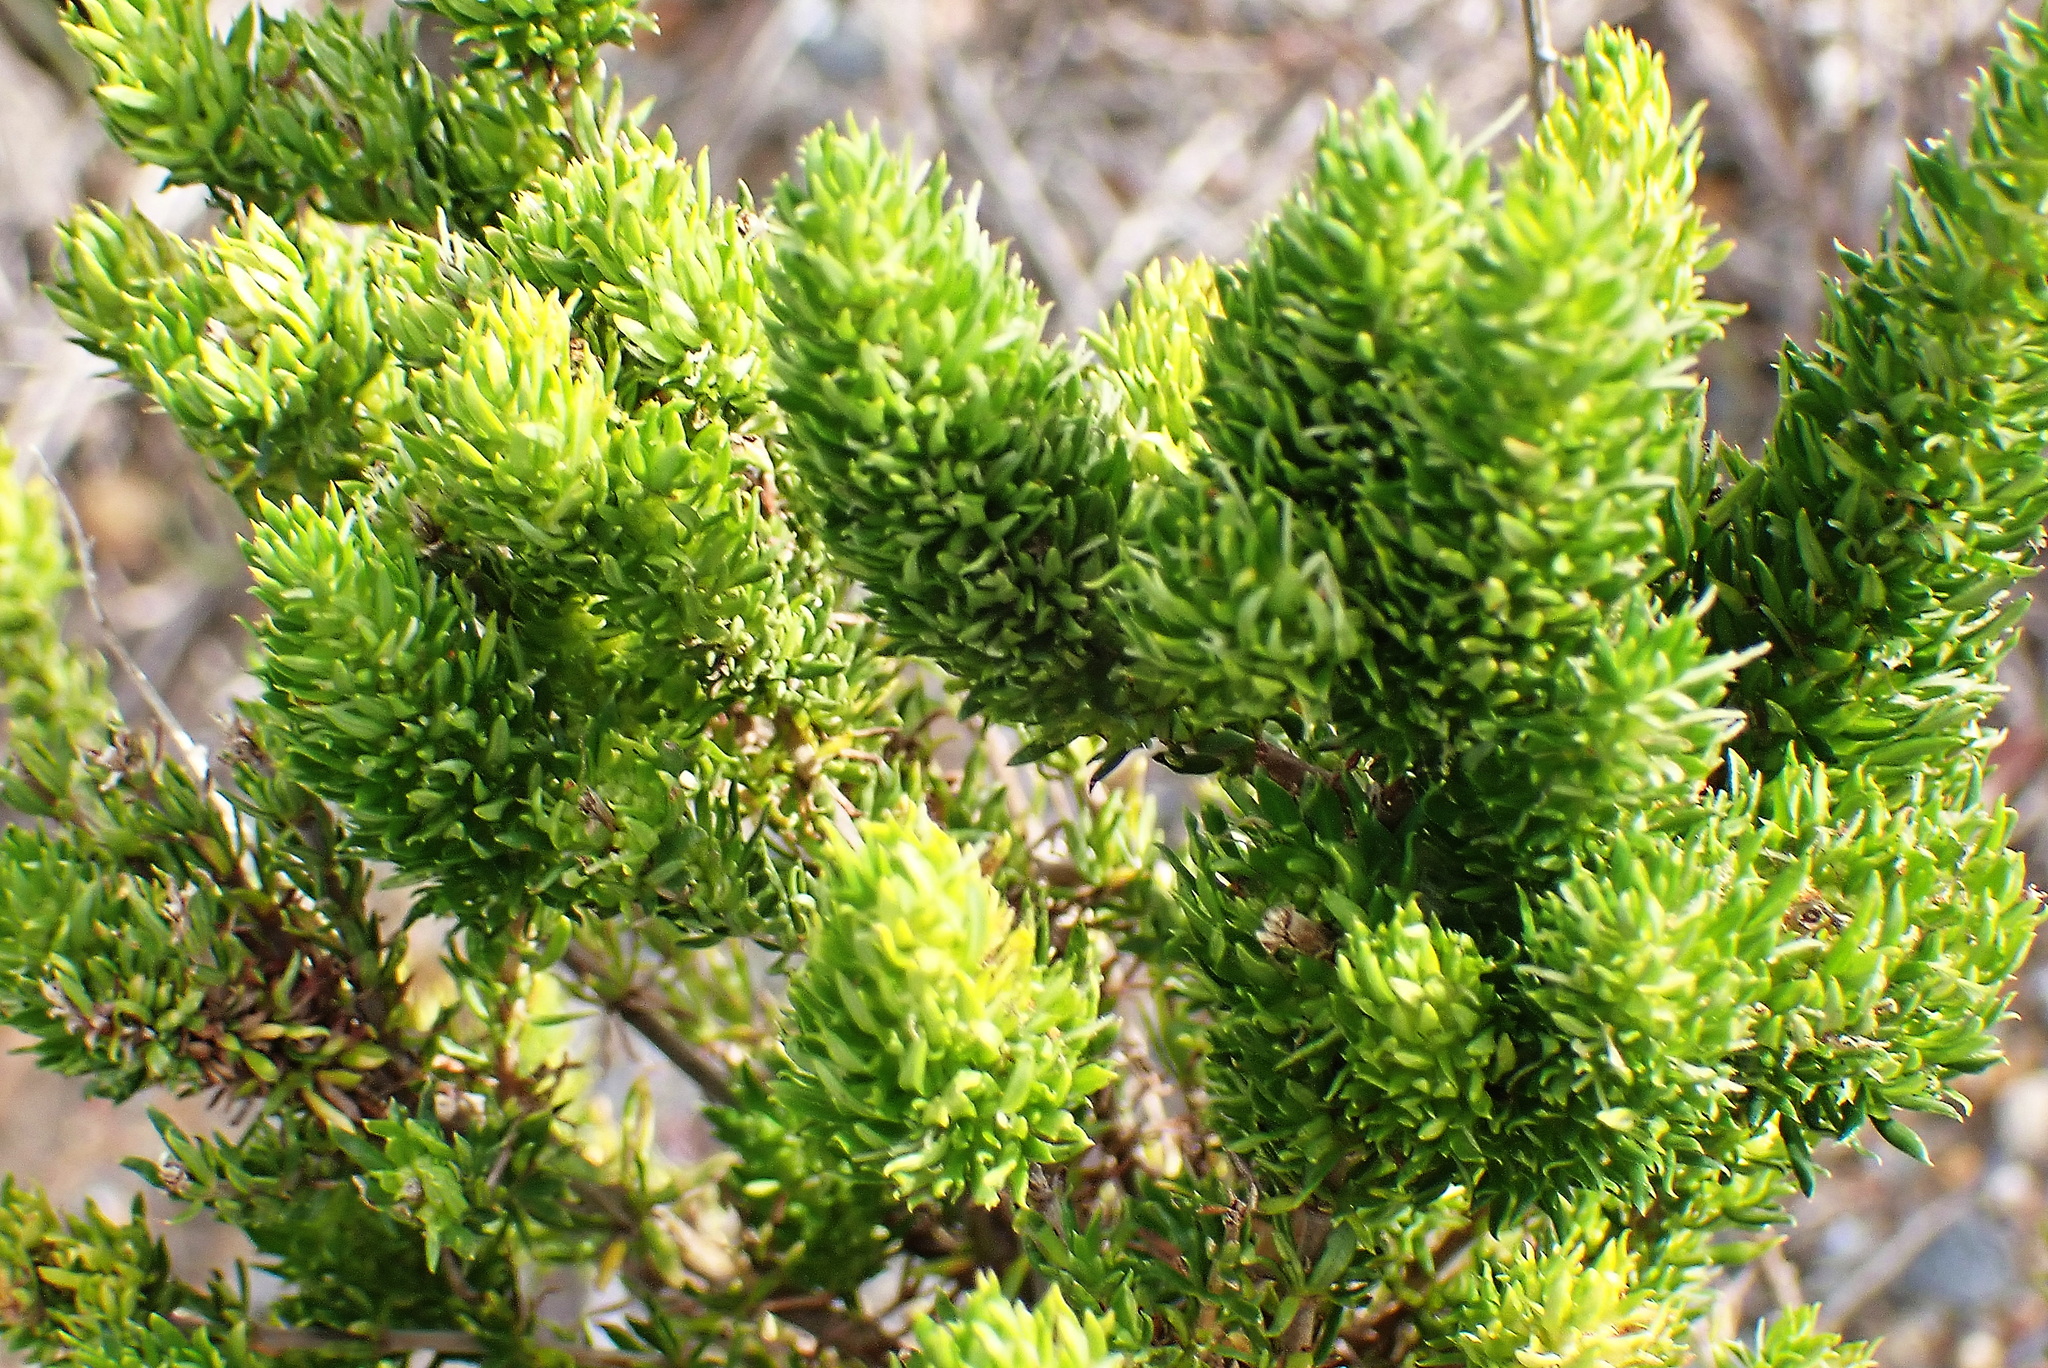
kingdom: Plantae
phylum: Tracheophyta
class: Magnoliopsida
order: Gentianales
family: Rubiaceae
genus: Anthospermum
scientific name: Anthospermum aethiopicum
